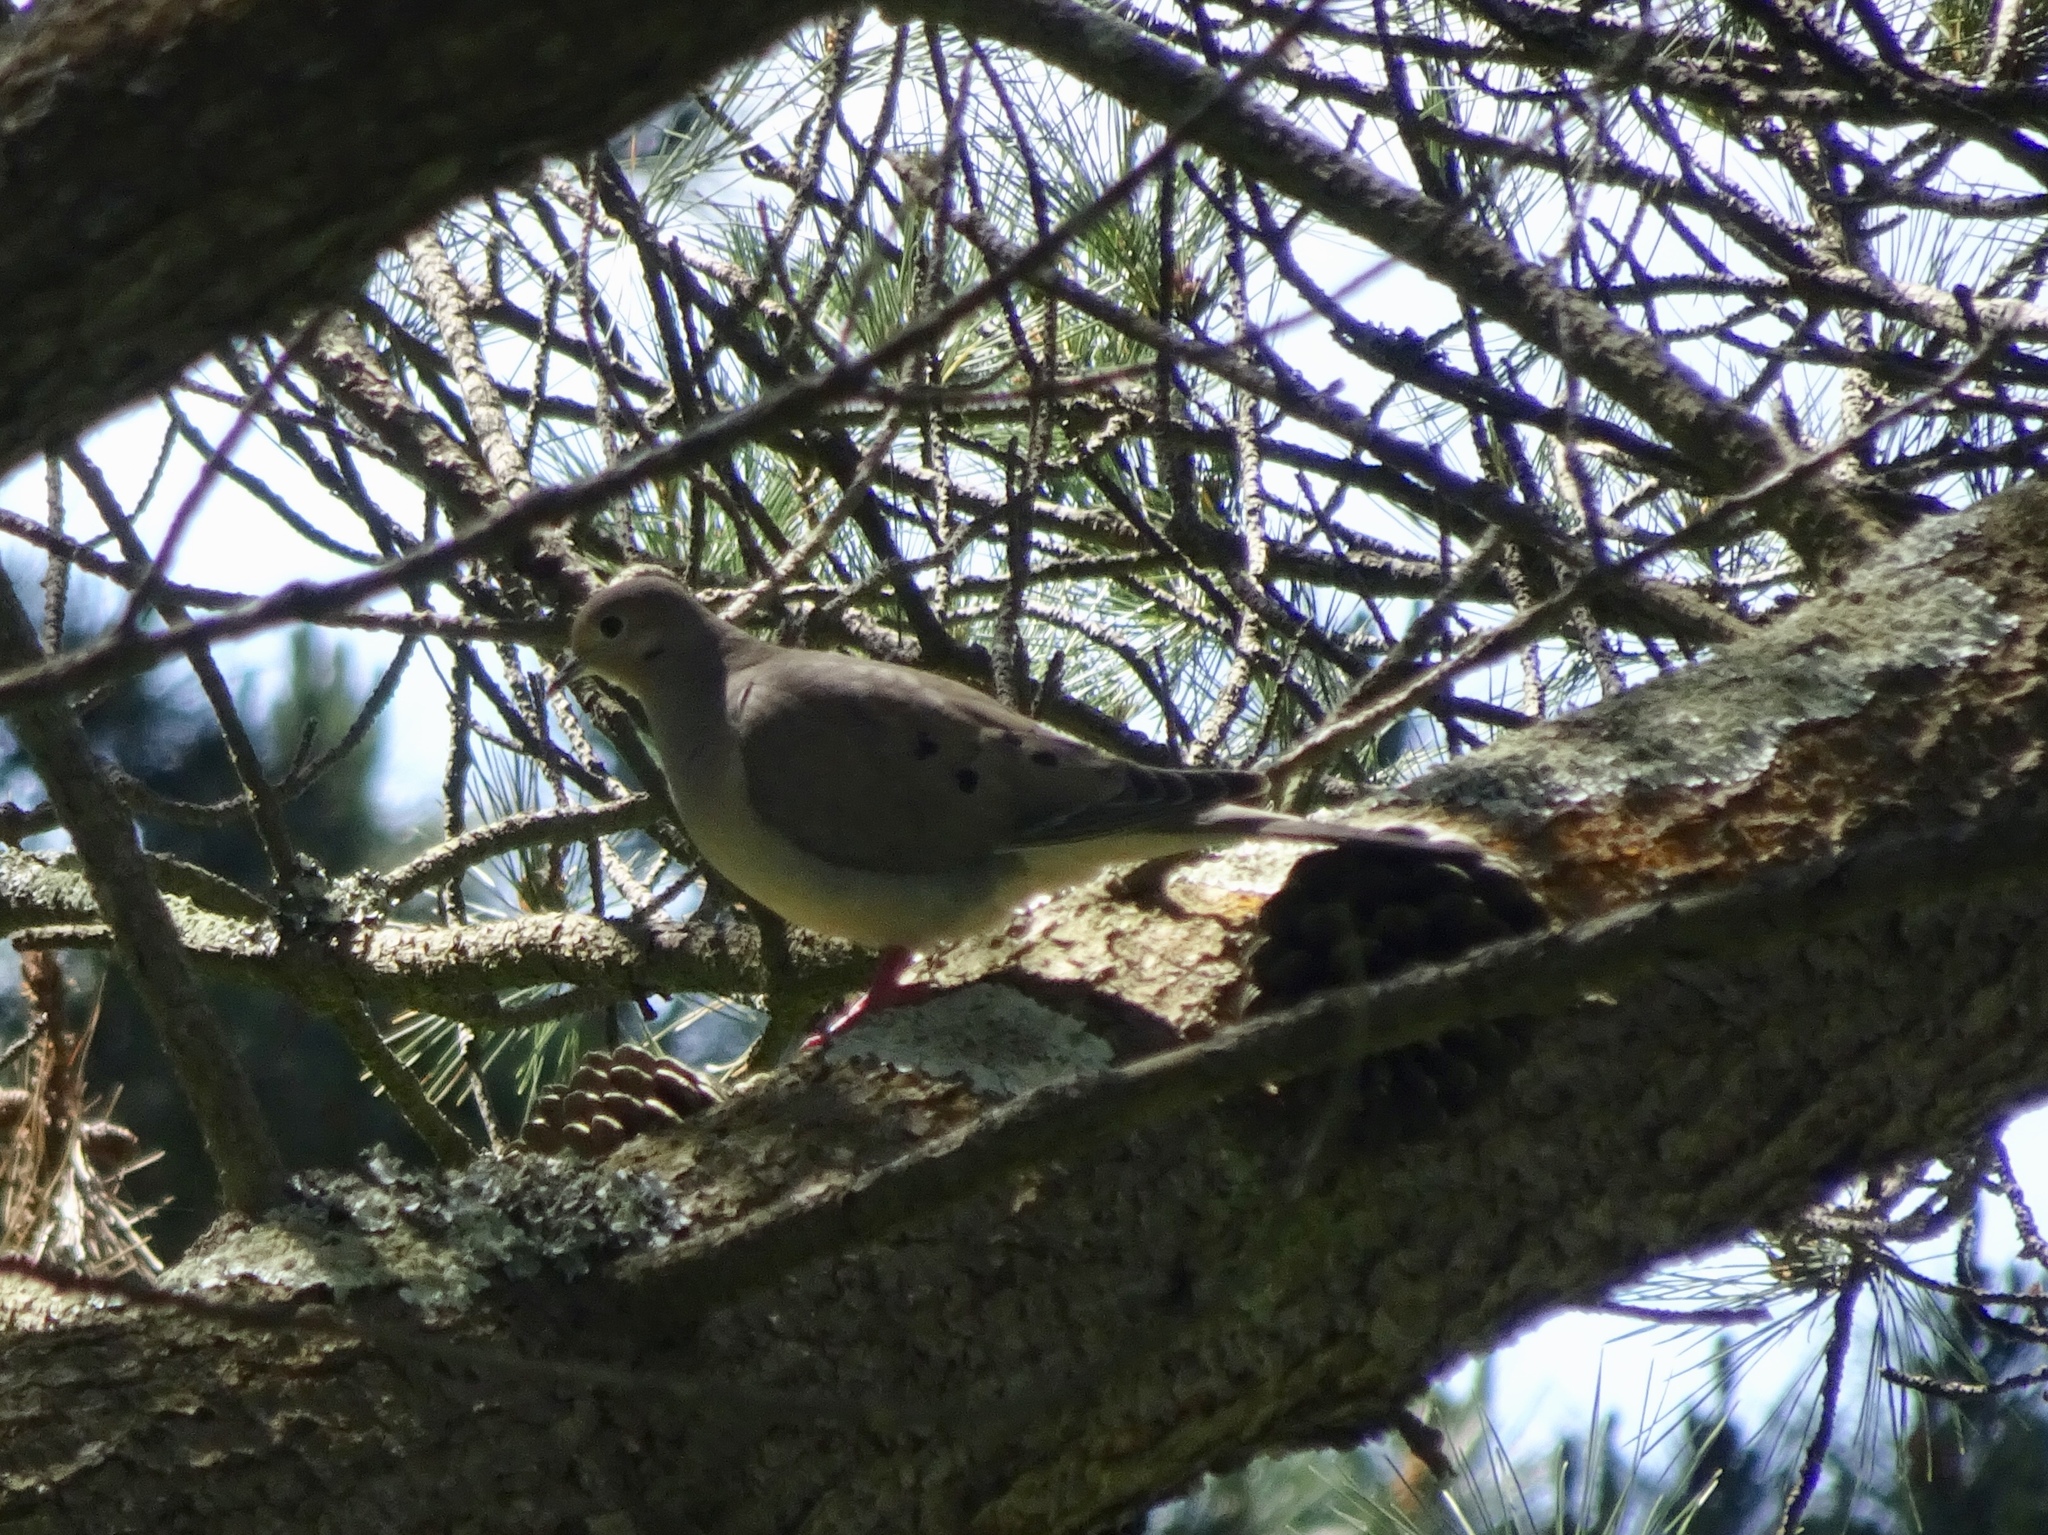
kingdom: Animalia
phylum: Chordata
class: Aves
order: Columbiformes
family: Columbidae
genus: Zenaida
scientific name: Zenaida macroura
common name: Mourning dove
